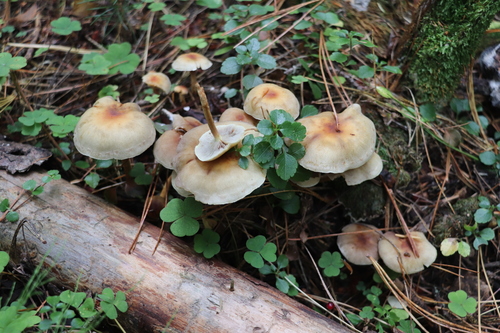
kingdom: Fungi
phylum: Basidiomycota
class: Agaricomycetes
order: Agaricales
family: Strophariaceae
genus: Hypholoma
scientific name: Hypholoma capnoides
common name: Conifer tuft
